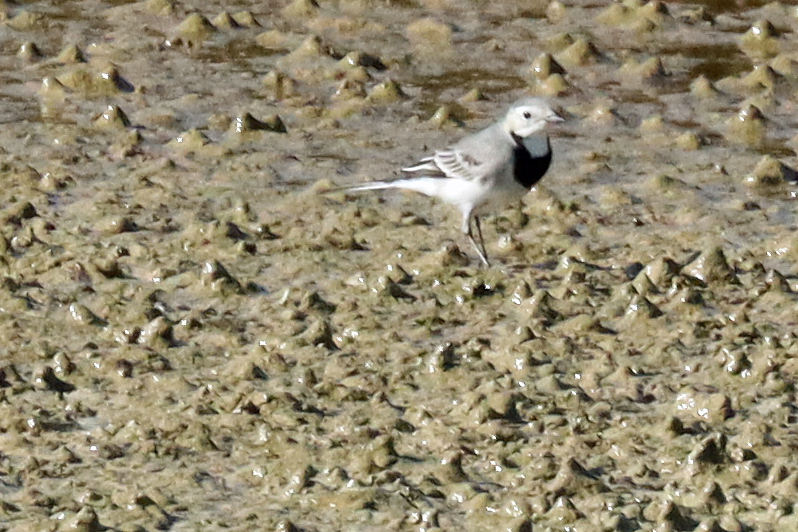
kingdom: Animalia
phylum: Chordata
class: Aves
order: Passeriformes
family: Motacillidae
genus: Motacilla
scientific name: Motacilla alba
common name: White wagtail
